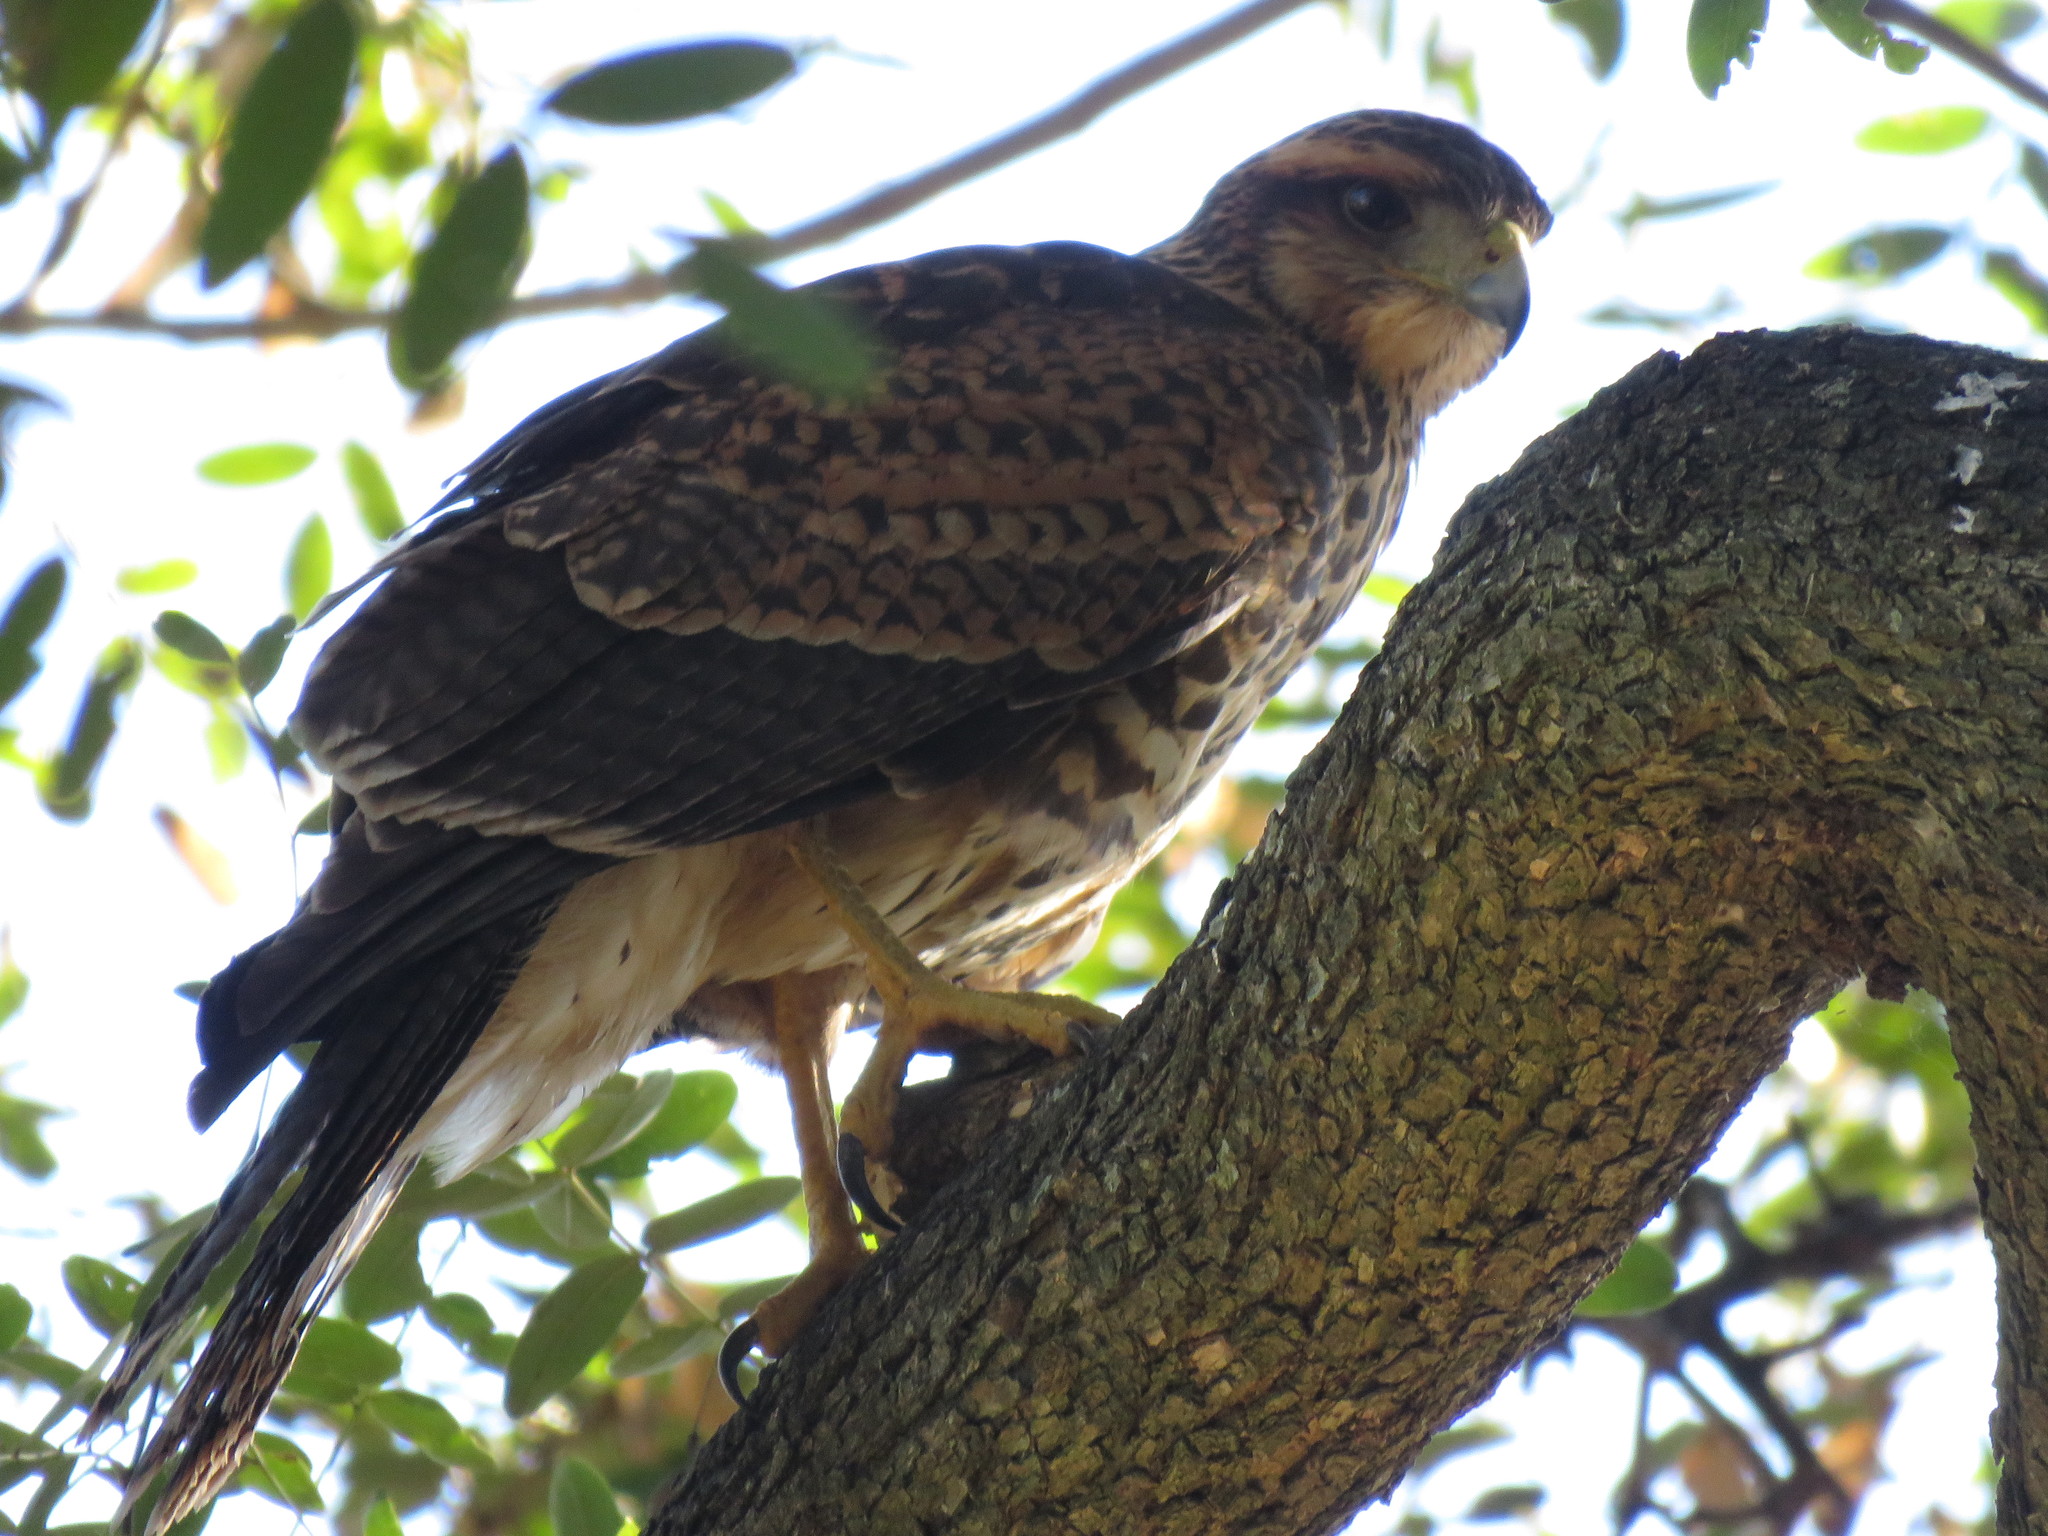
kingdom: Animalia
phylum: Chordata
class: Aves
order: Accipitriformes
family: Accipitridae
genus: Parabuteo
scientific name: Parabuteo unicinctus
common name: Harris's hawk
